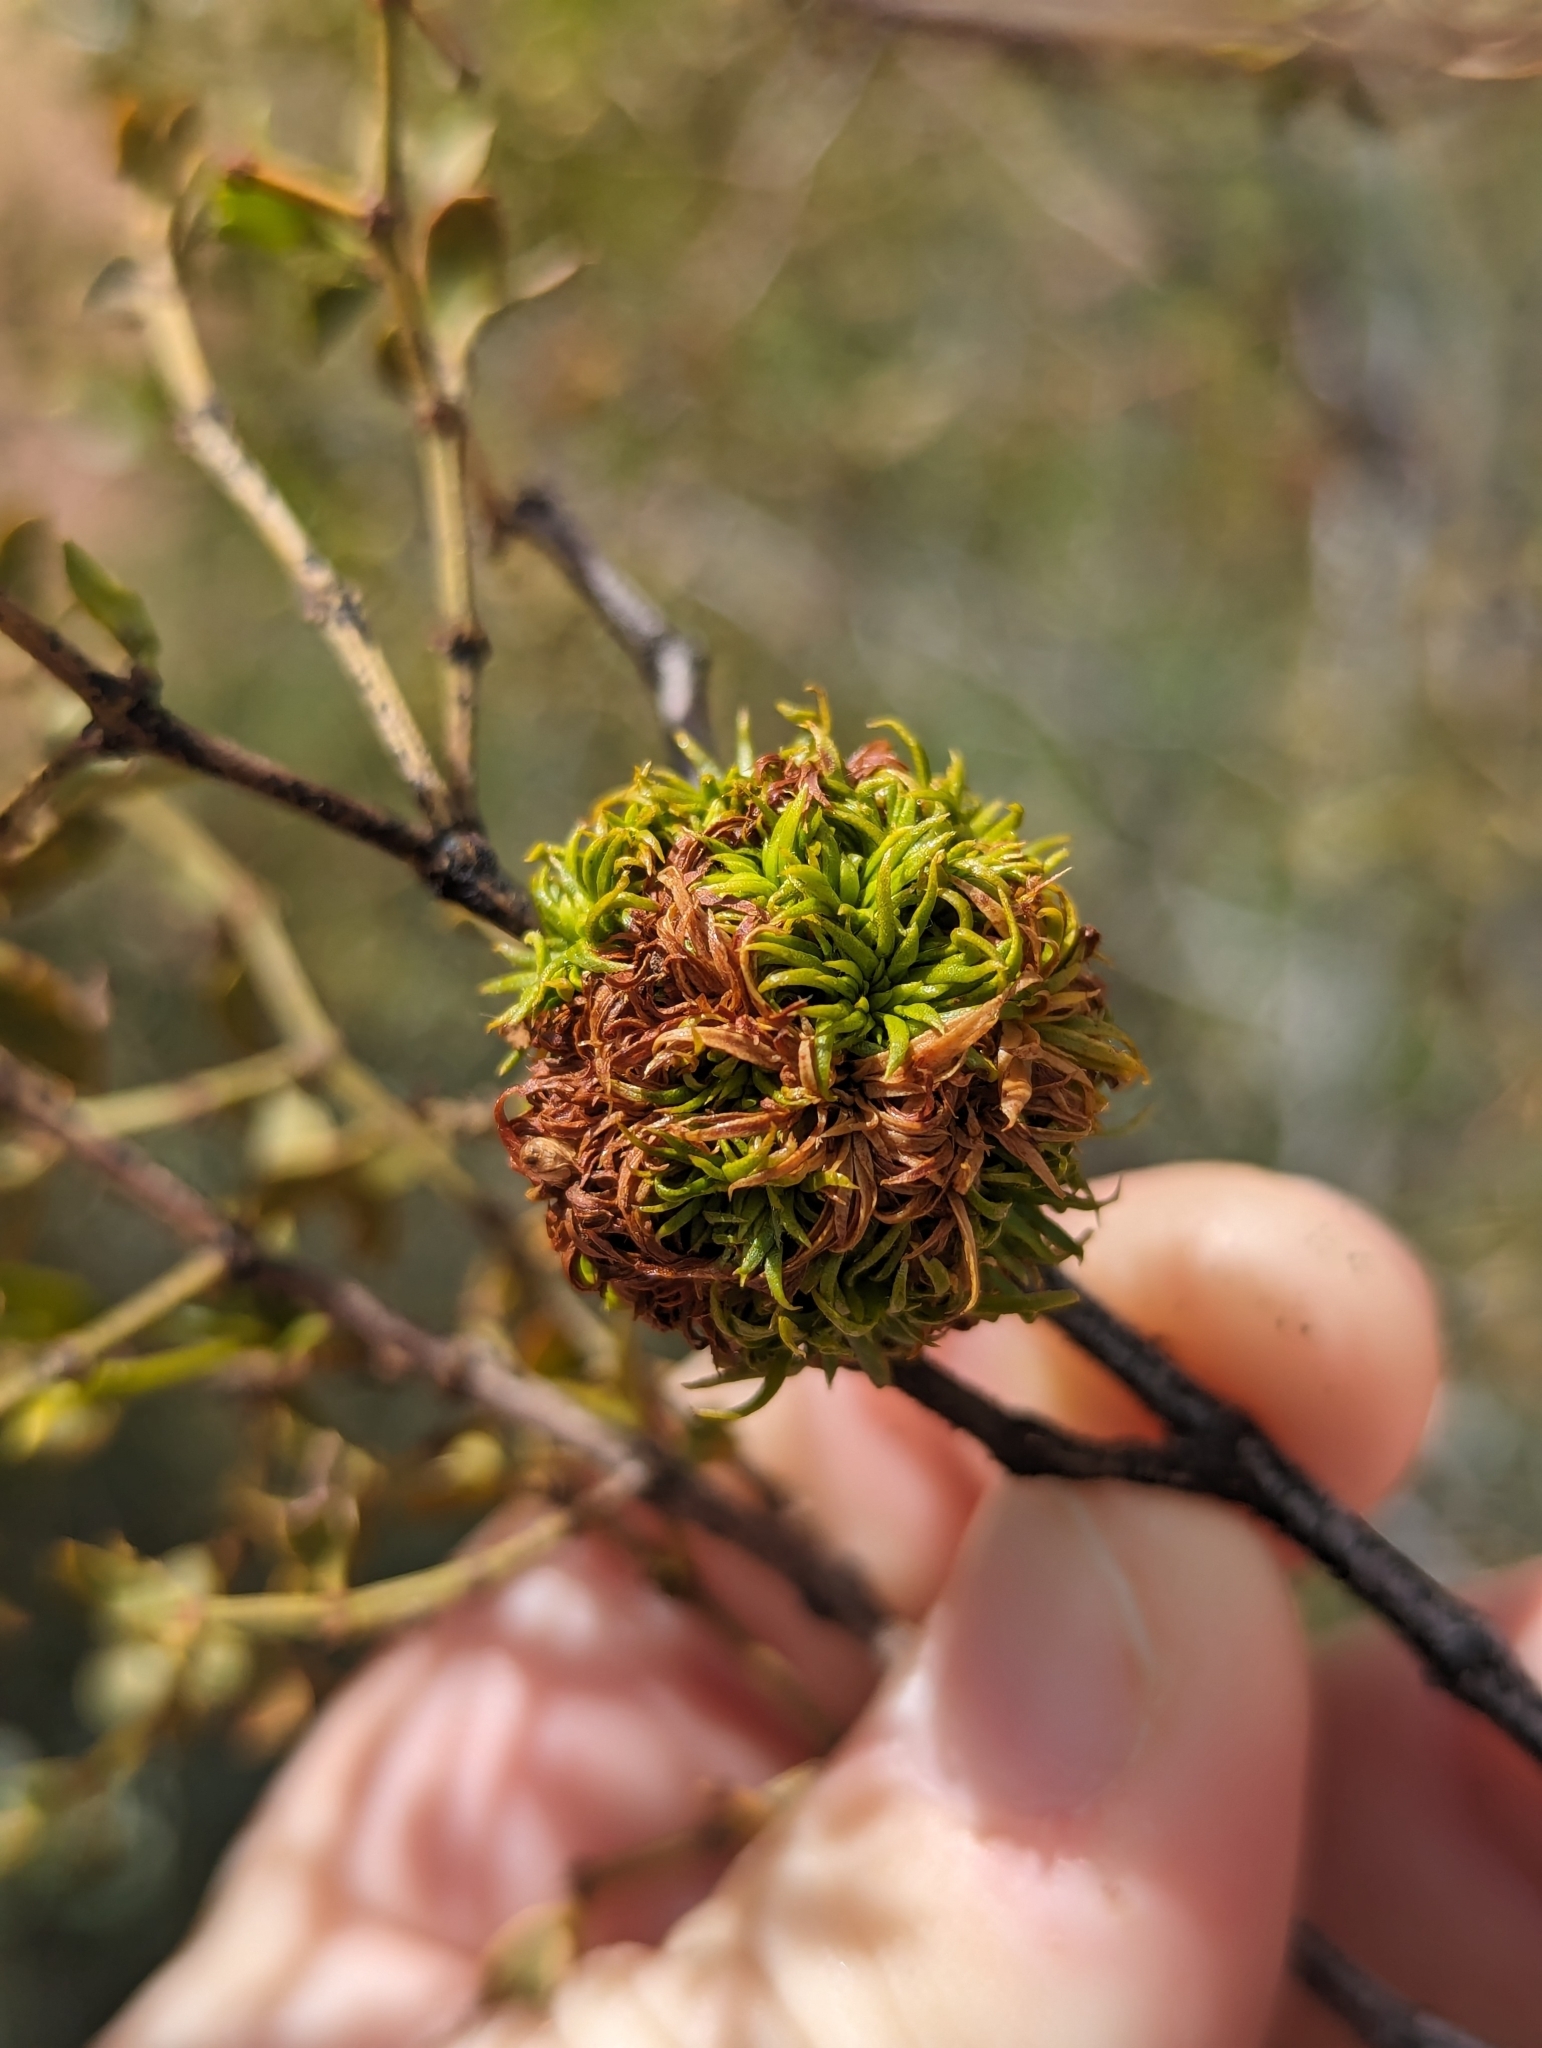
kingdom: Animalia
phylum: Arthropoda
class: Insecta
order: Diptera
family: Cecidomyiidae
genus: Asphondylia
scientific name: Asphondylia auripila
